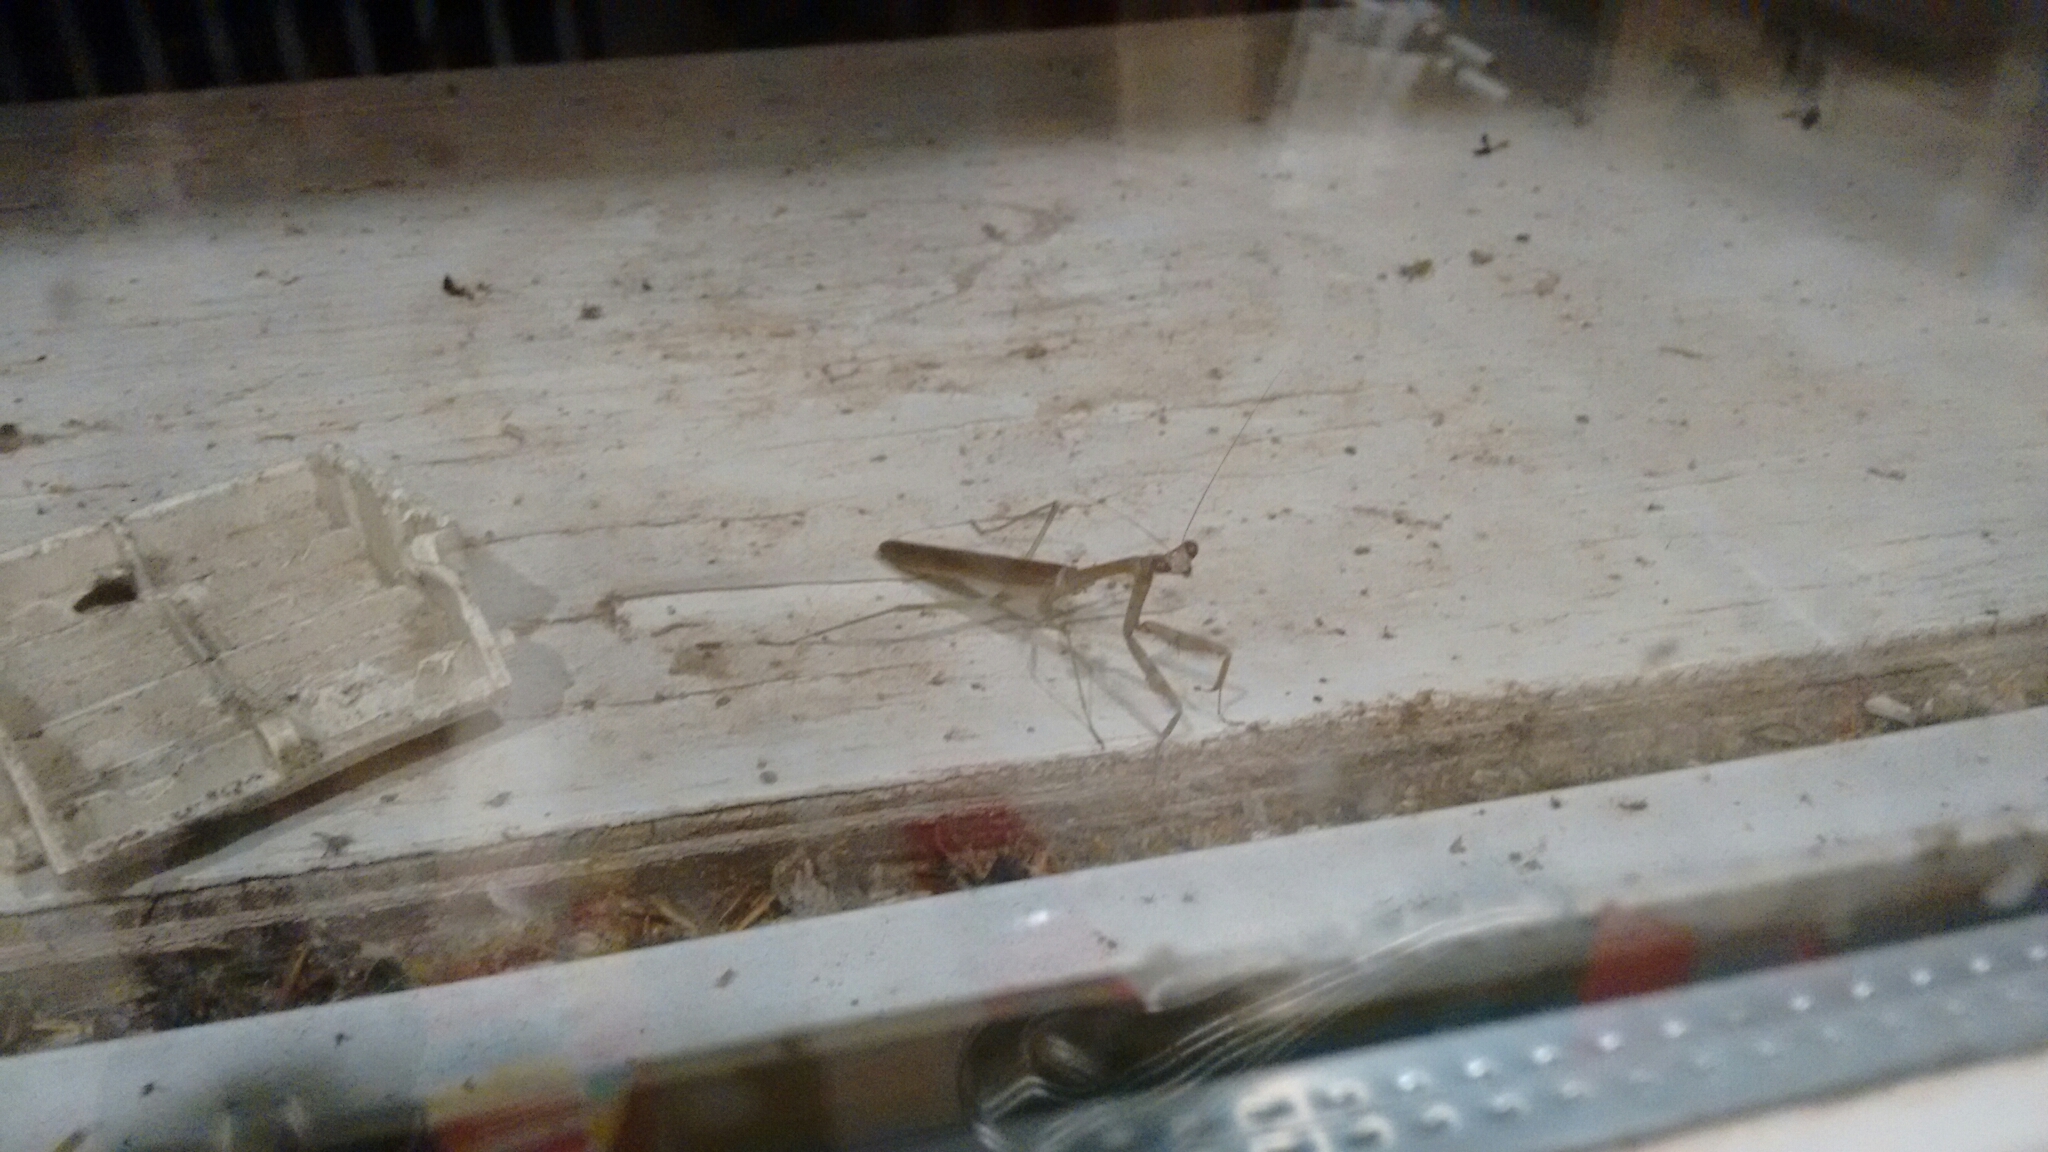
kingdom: Animalia
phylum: Arthropoda
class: Insecta
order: Mantodea
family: Mantidae
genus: Stagmomantis
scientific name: Stagmomantis carolina
